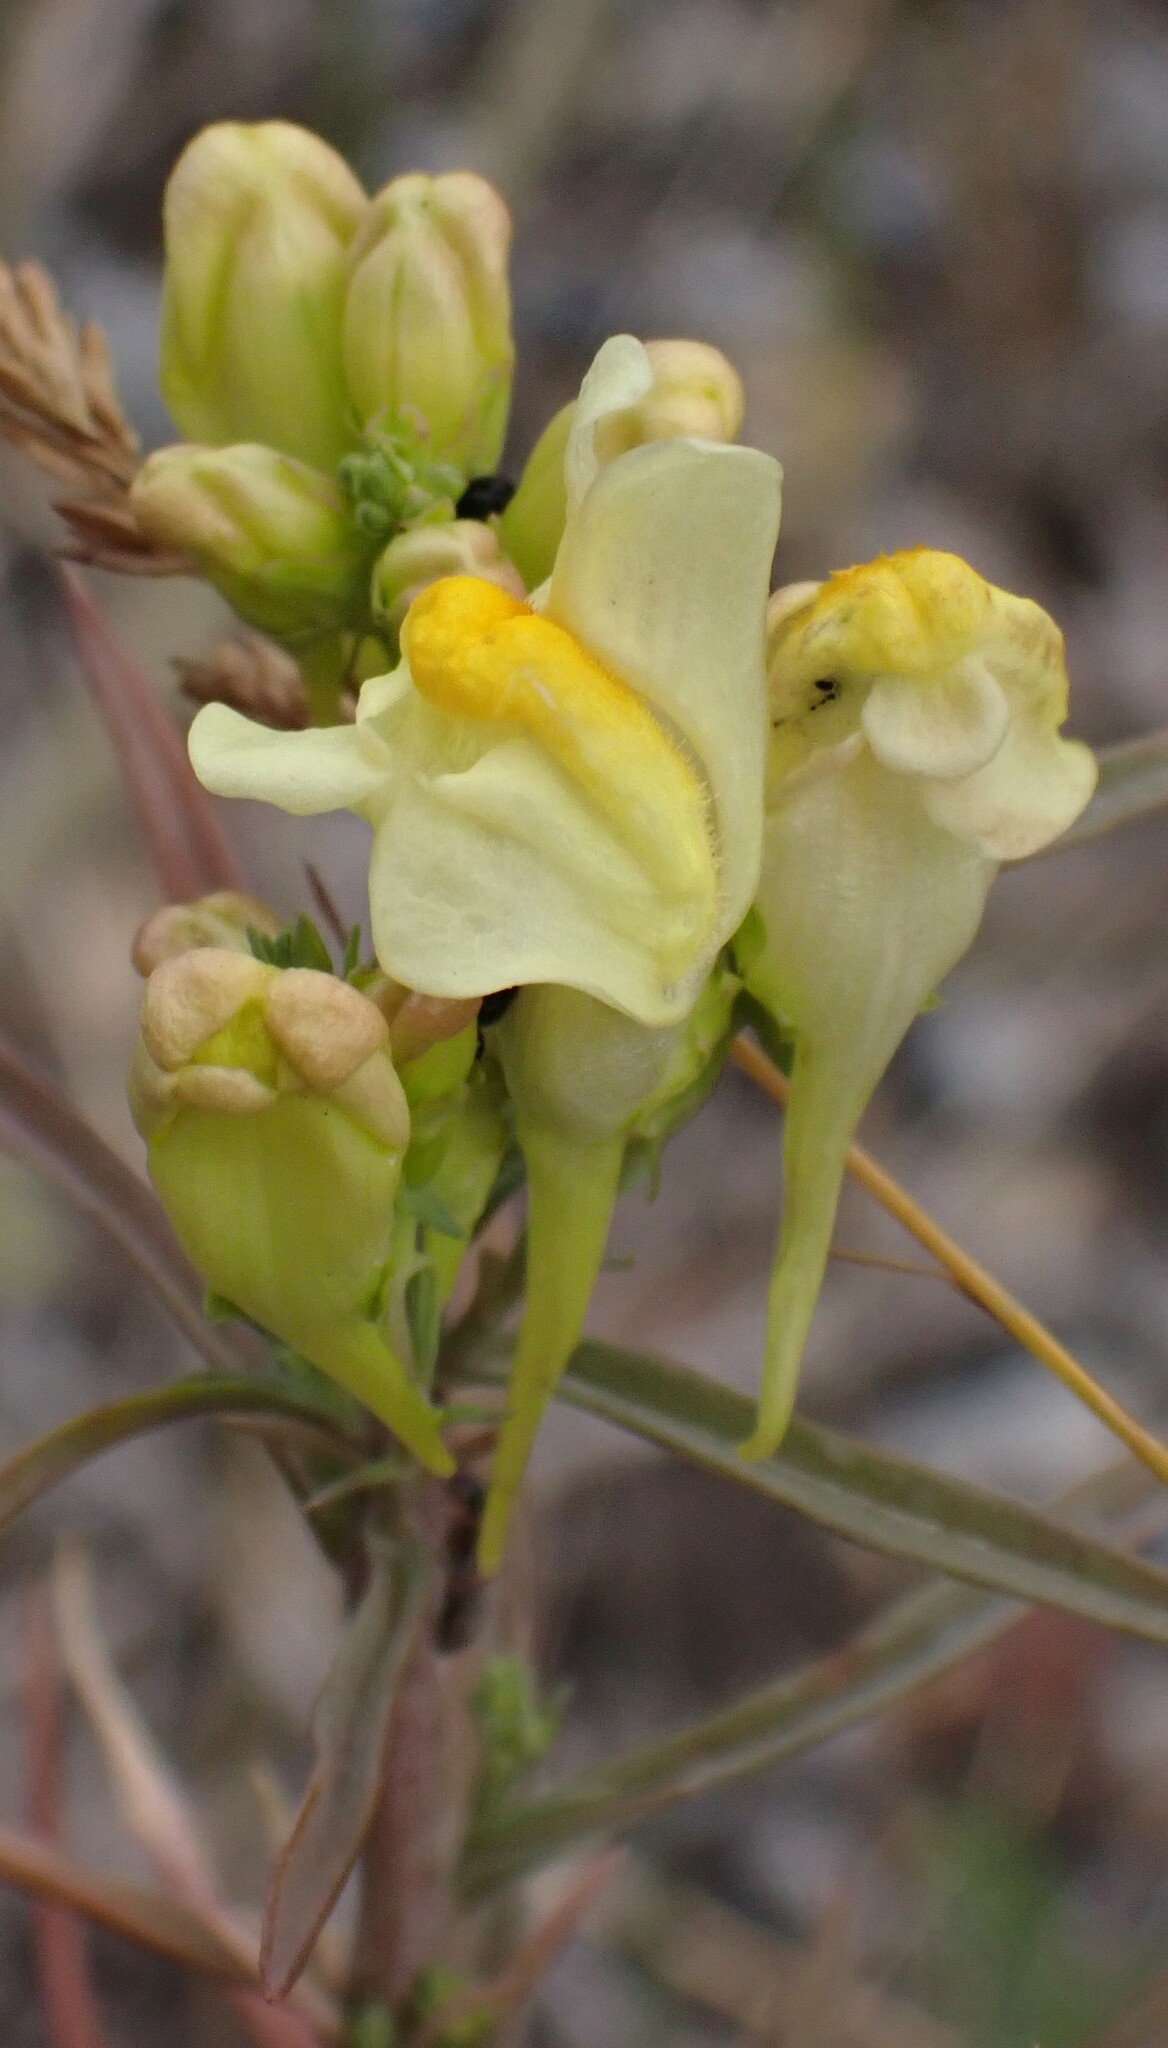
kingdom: Plantae
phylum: Tracheophyta
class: Magnoliopsida
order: Lamiales
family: Plantaginaceae
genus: Linaria
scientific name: Linaria vulgaris
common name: Butter and eggs
